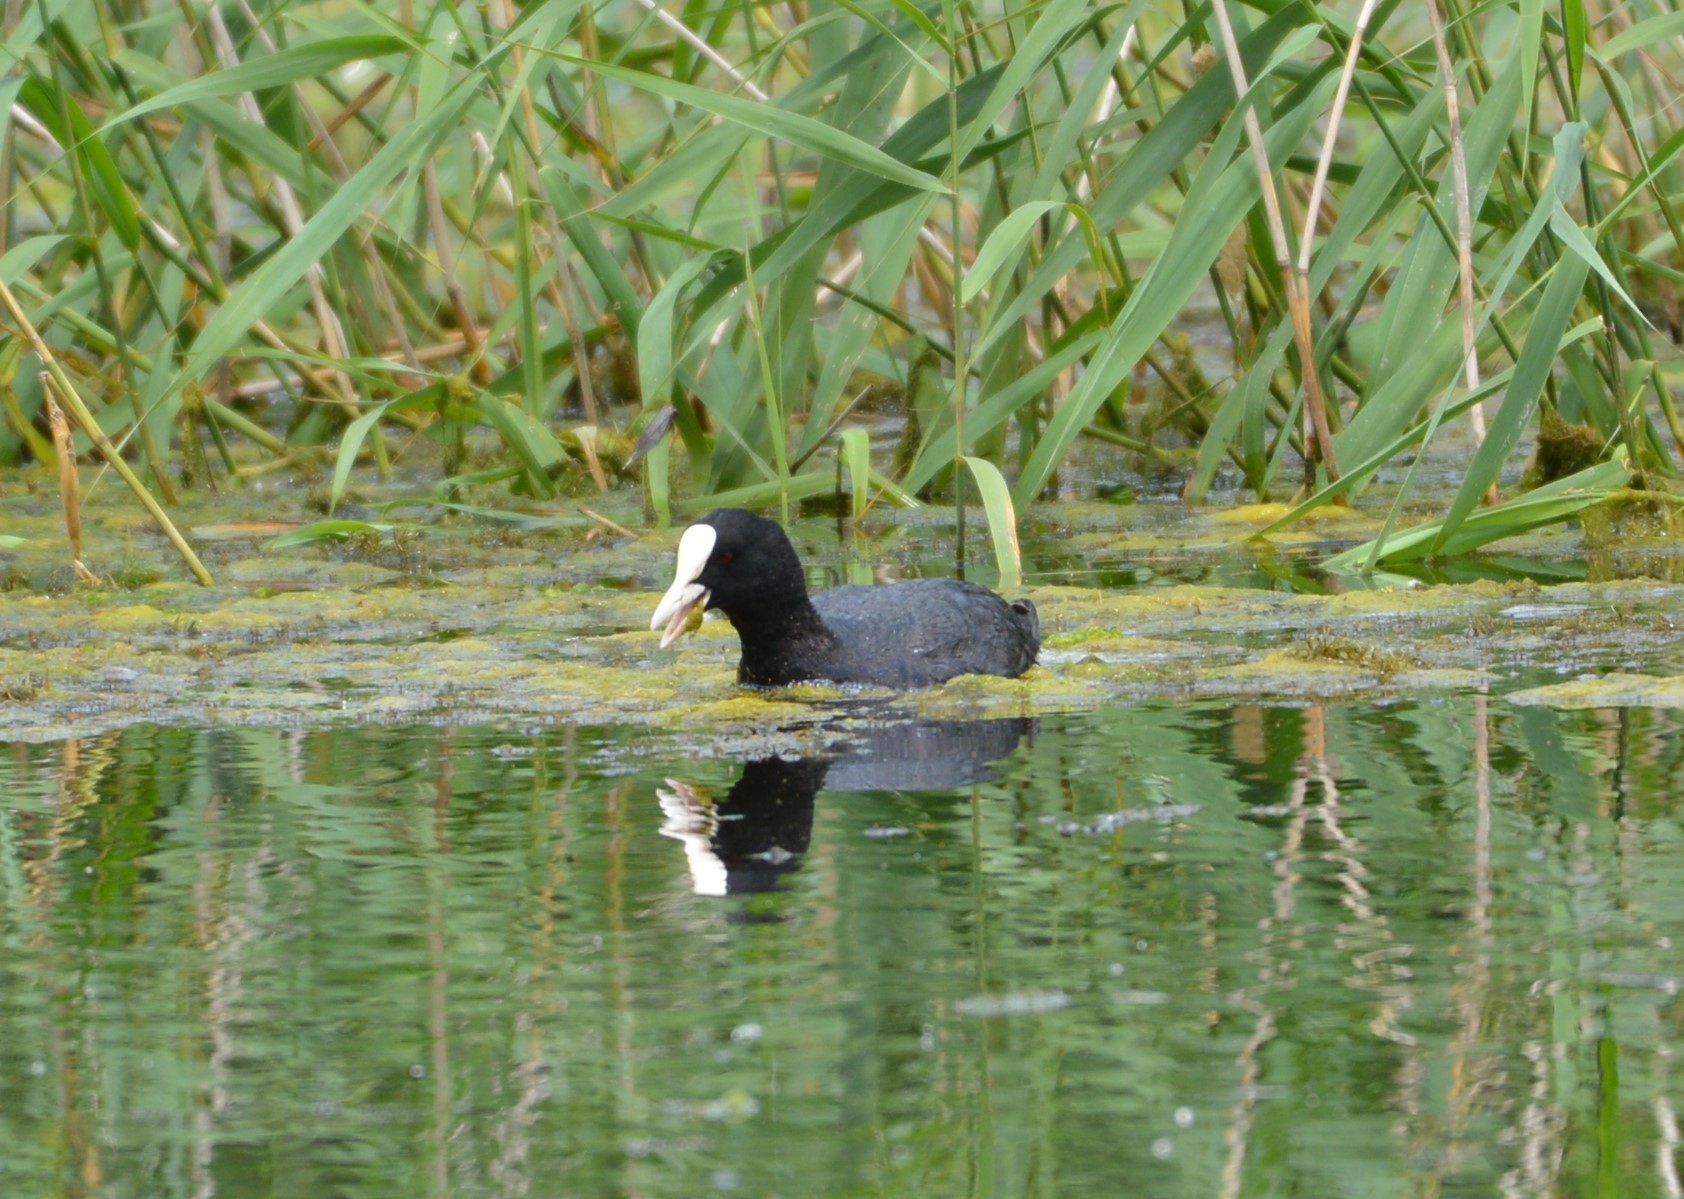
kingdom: Animalia
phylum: Chordata
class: Aves
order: Gruiformes
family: Rallidae
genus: Fulica
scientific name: Fulica atra
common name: Eurasian coot
